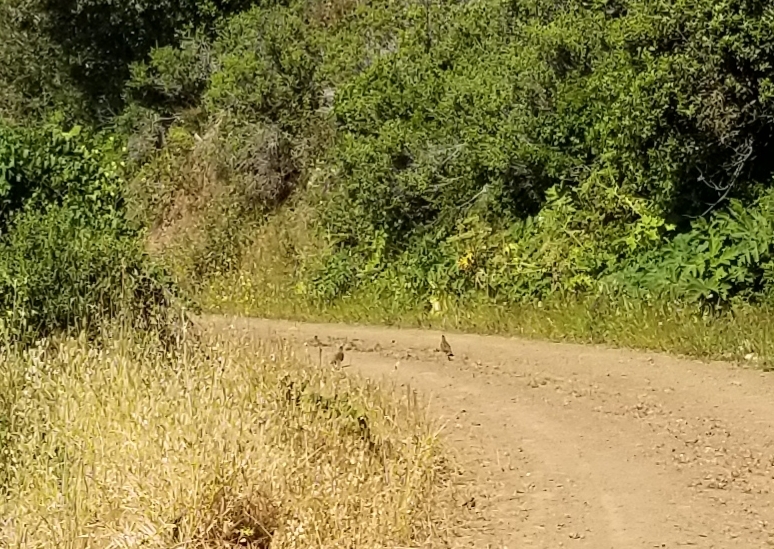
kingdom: Animalia
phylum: Chordata
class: Aves
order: Galliformes
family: Odontophoridae
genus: Callipepla
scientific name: Callipepla californica
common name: California quail
